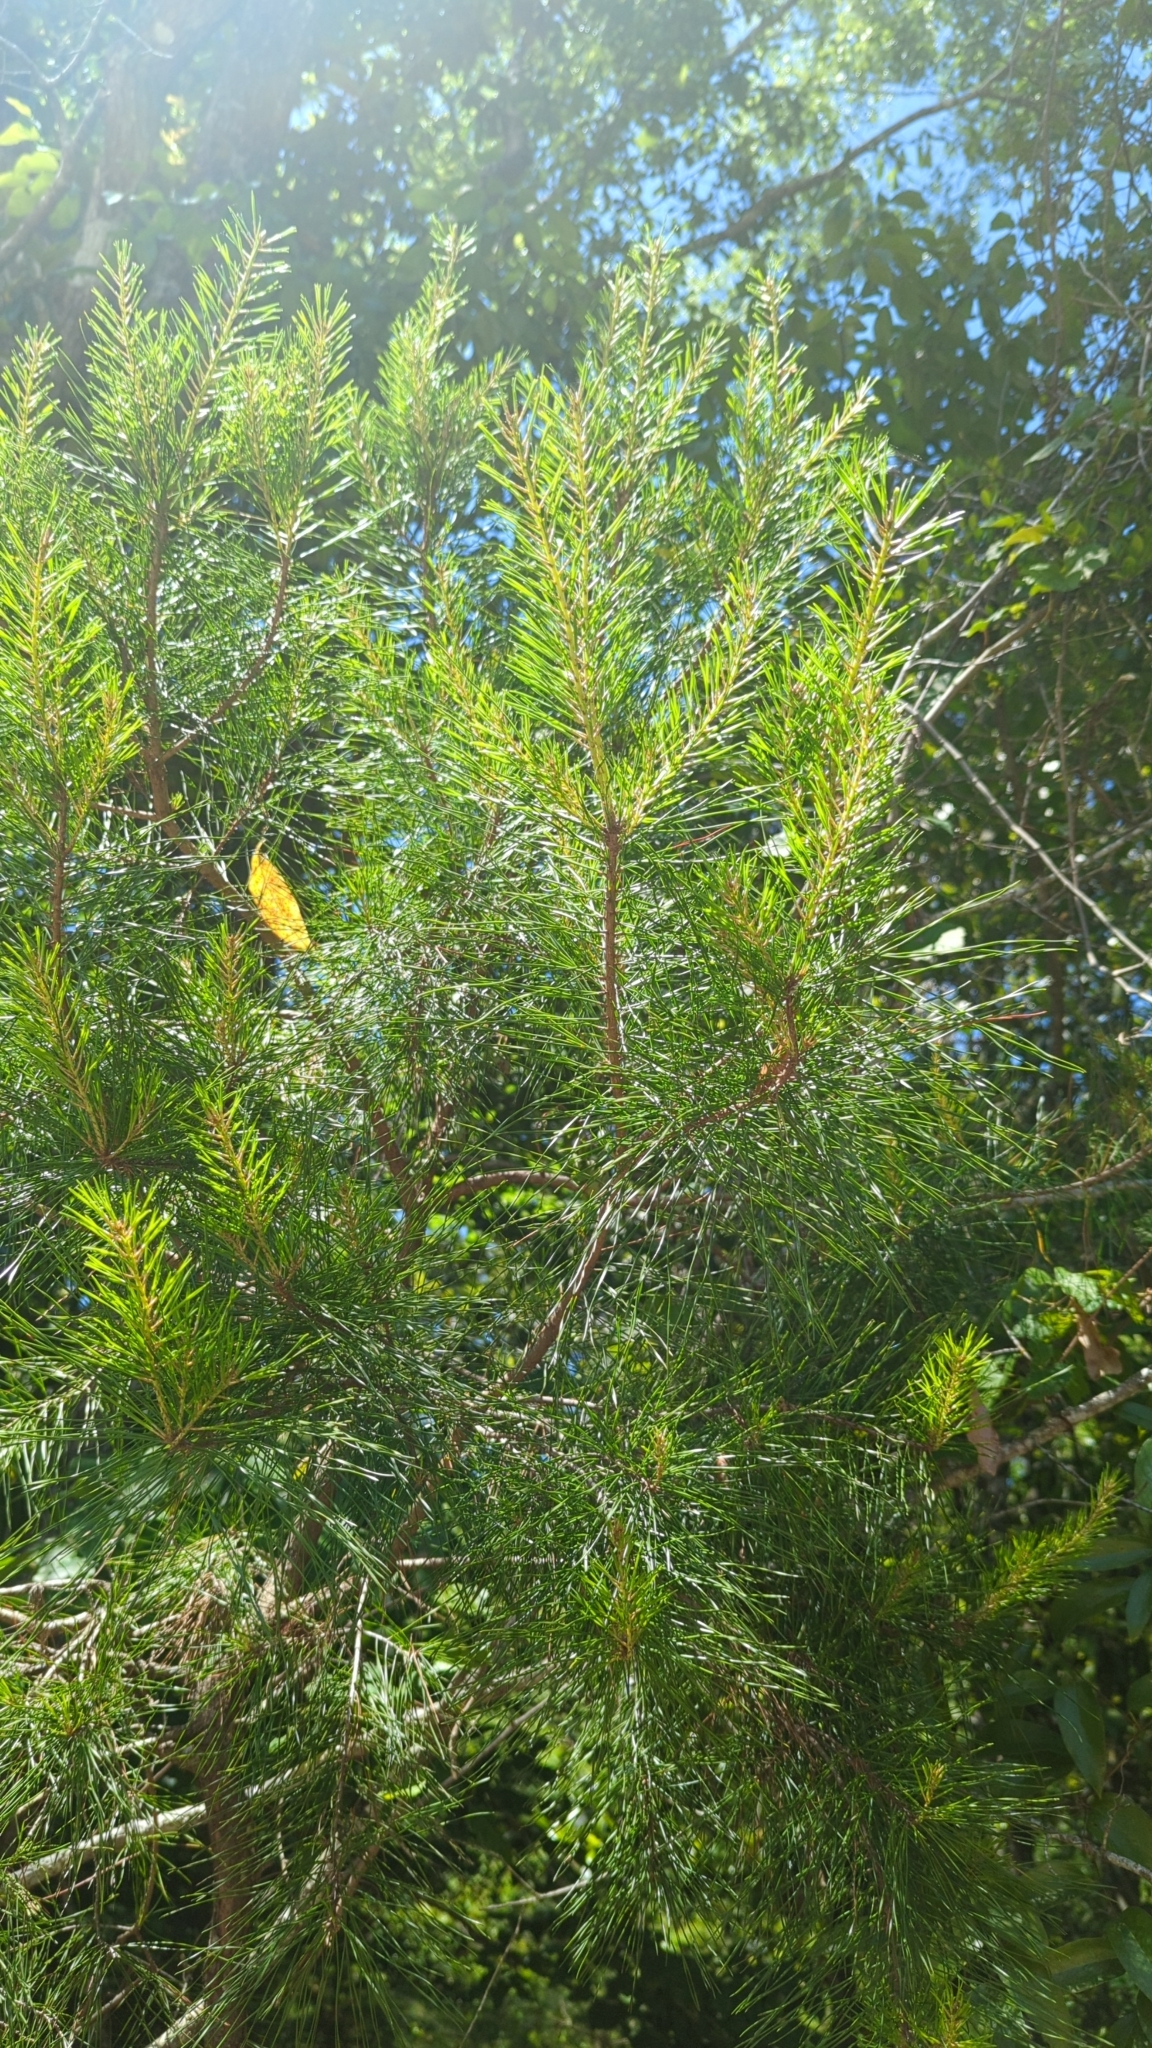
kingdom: Plantae
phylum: Tracheophyta
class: Pinopsida
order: Pinales
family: Pinaceae
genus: Pinus
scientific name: Pinus glabra
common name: Spruce pine
